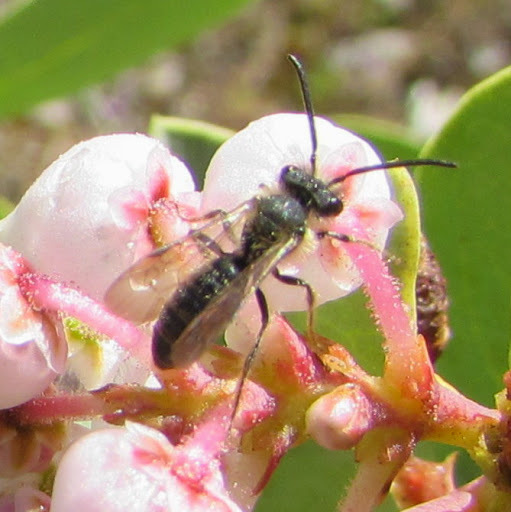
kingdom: Animalia
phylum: Arthropoda
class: Insecta
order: Hymenoptera
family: Andrenidae
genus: Andrena
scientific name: Andrena
